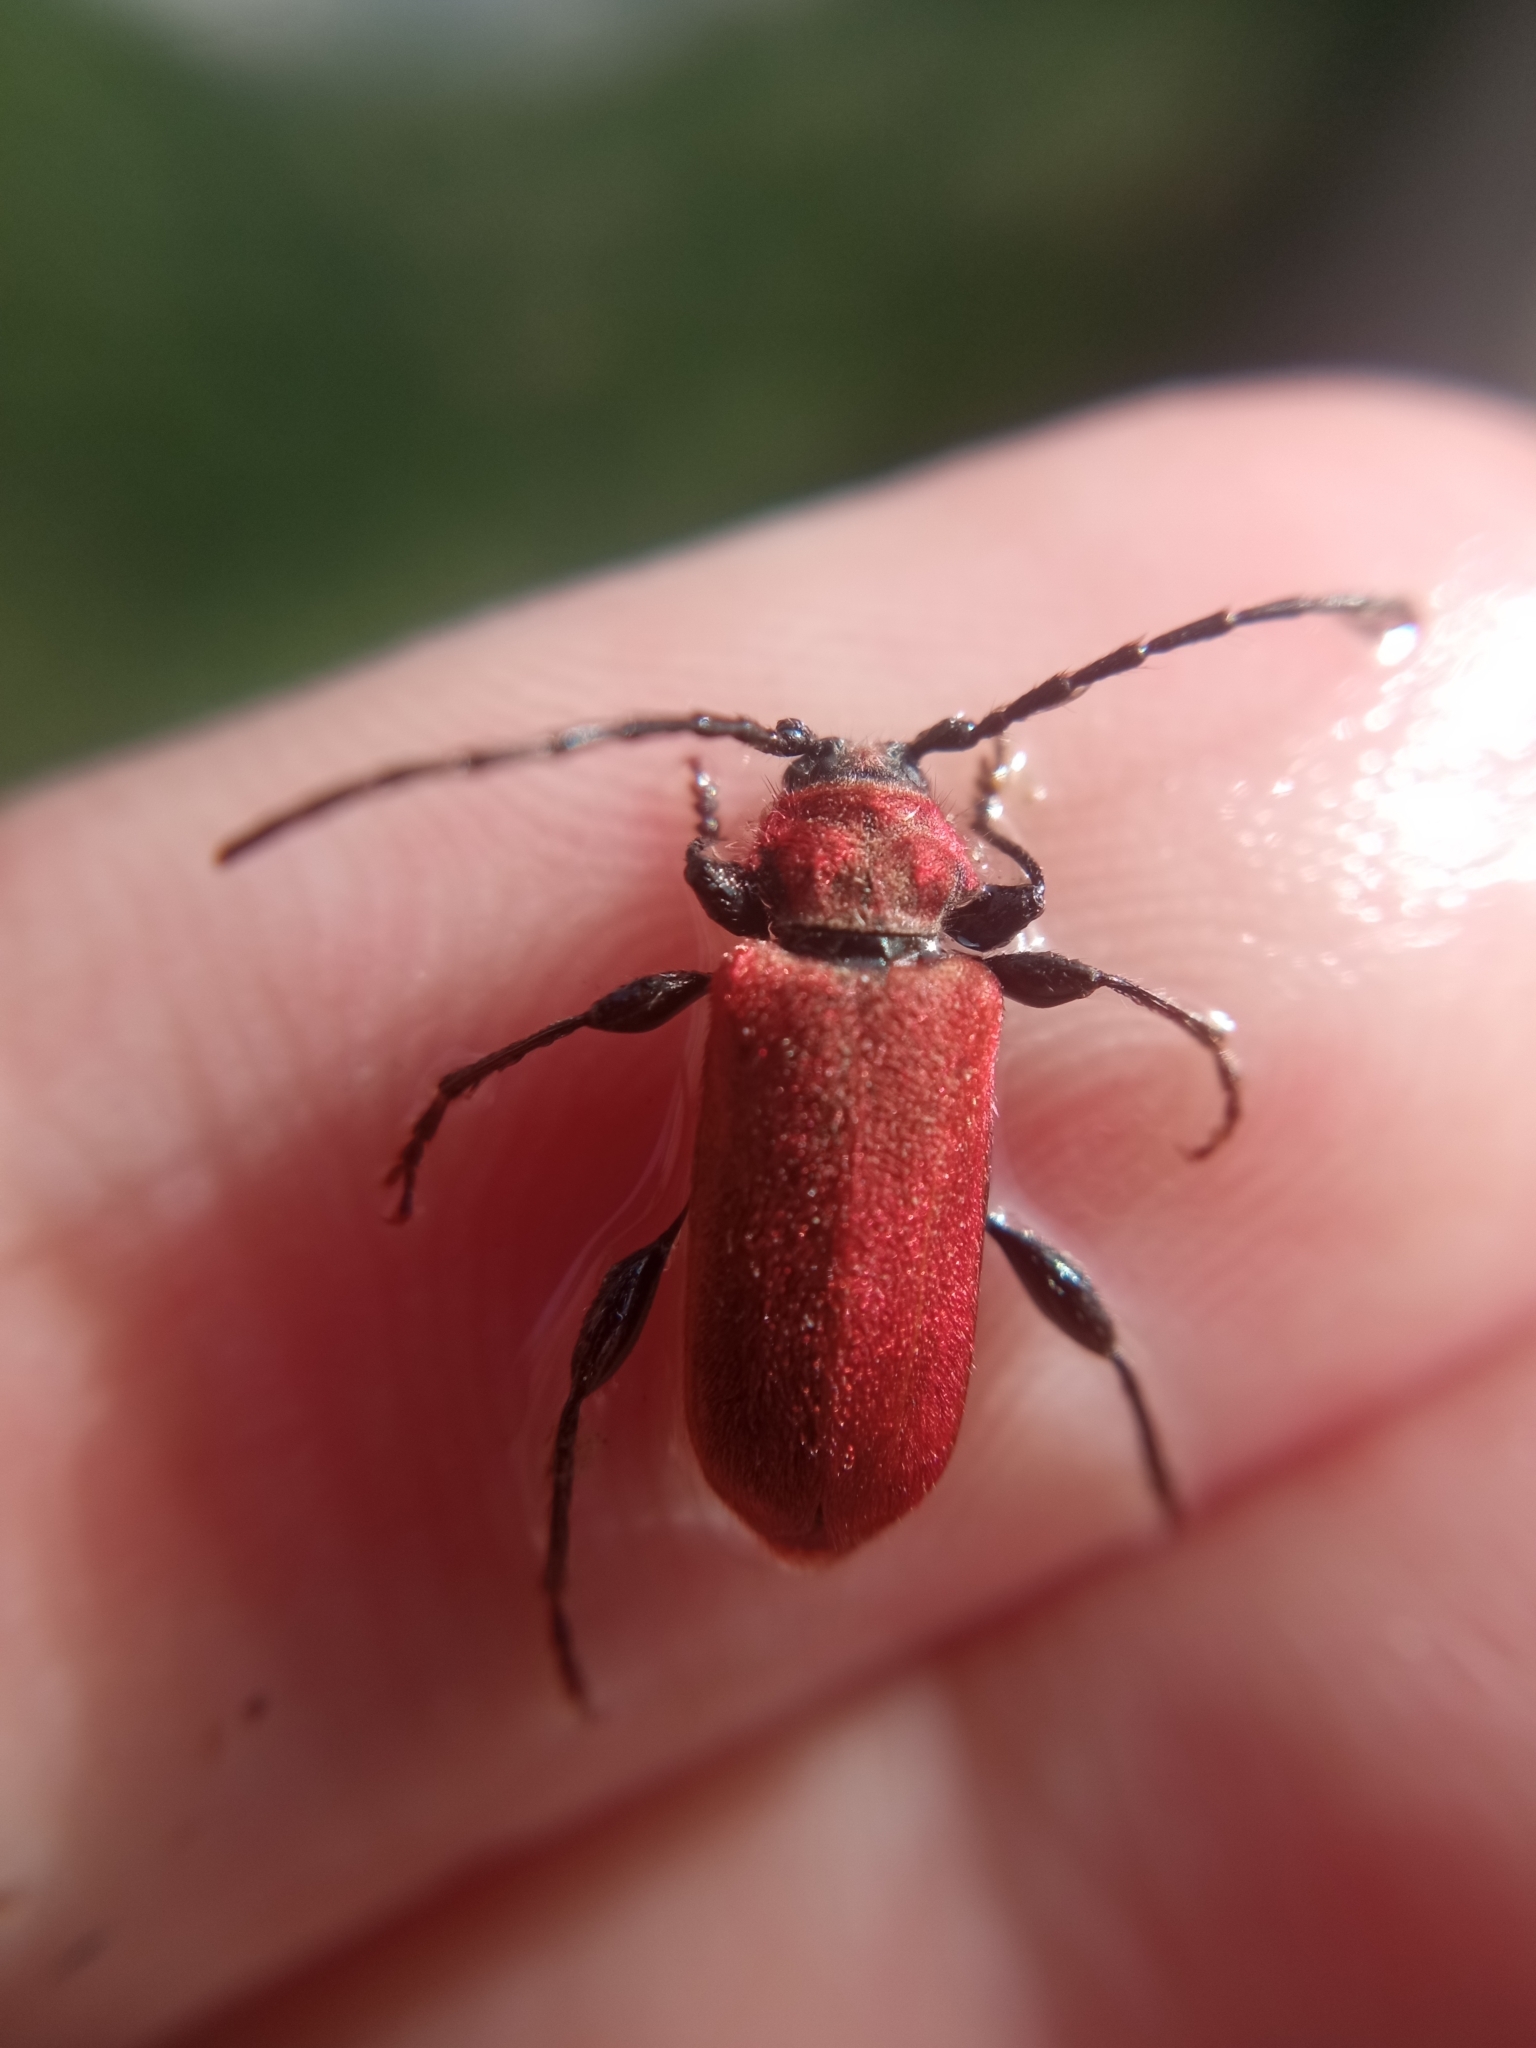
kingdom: Animalia
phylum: Arthropoda
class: Insecta
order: Coleoptera
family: Cerambycidae
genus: Pyrrhidium
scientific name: Pyrrhidium sanguineum
